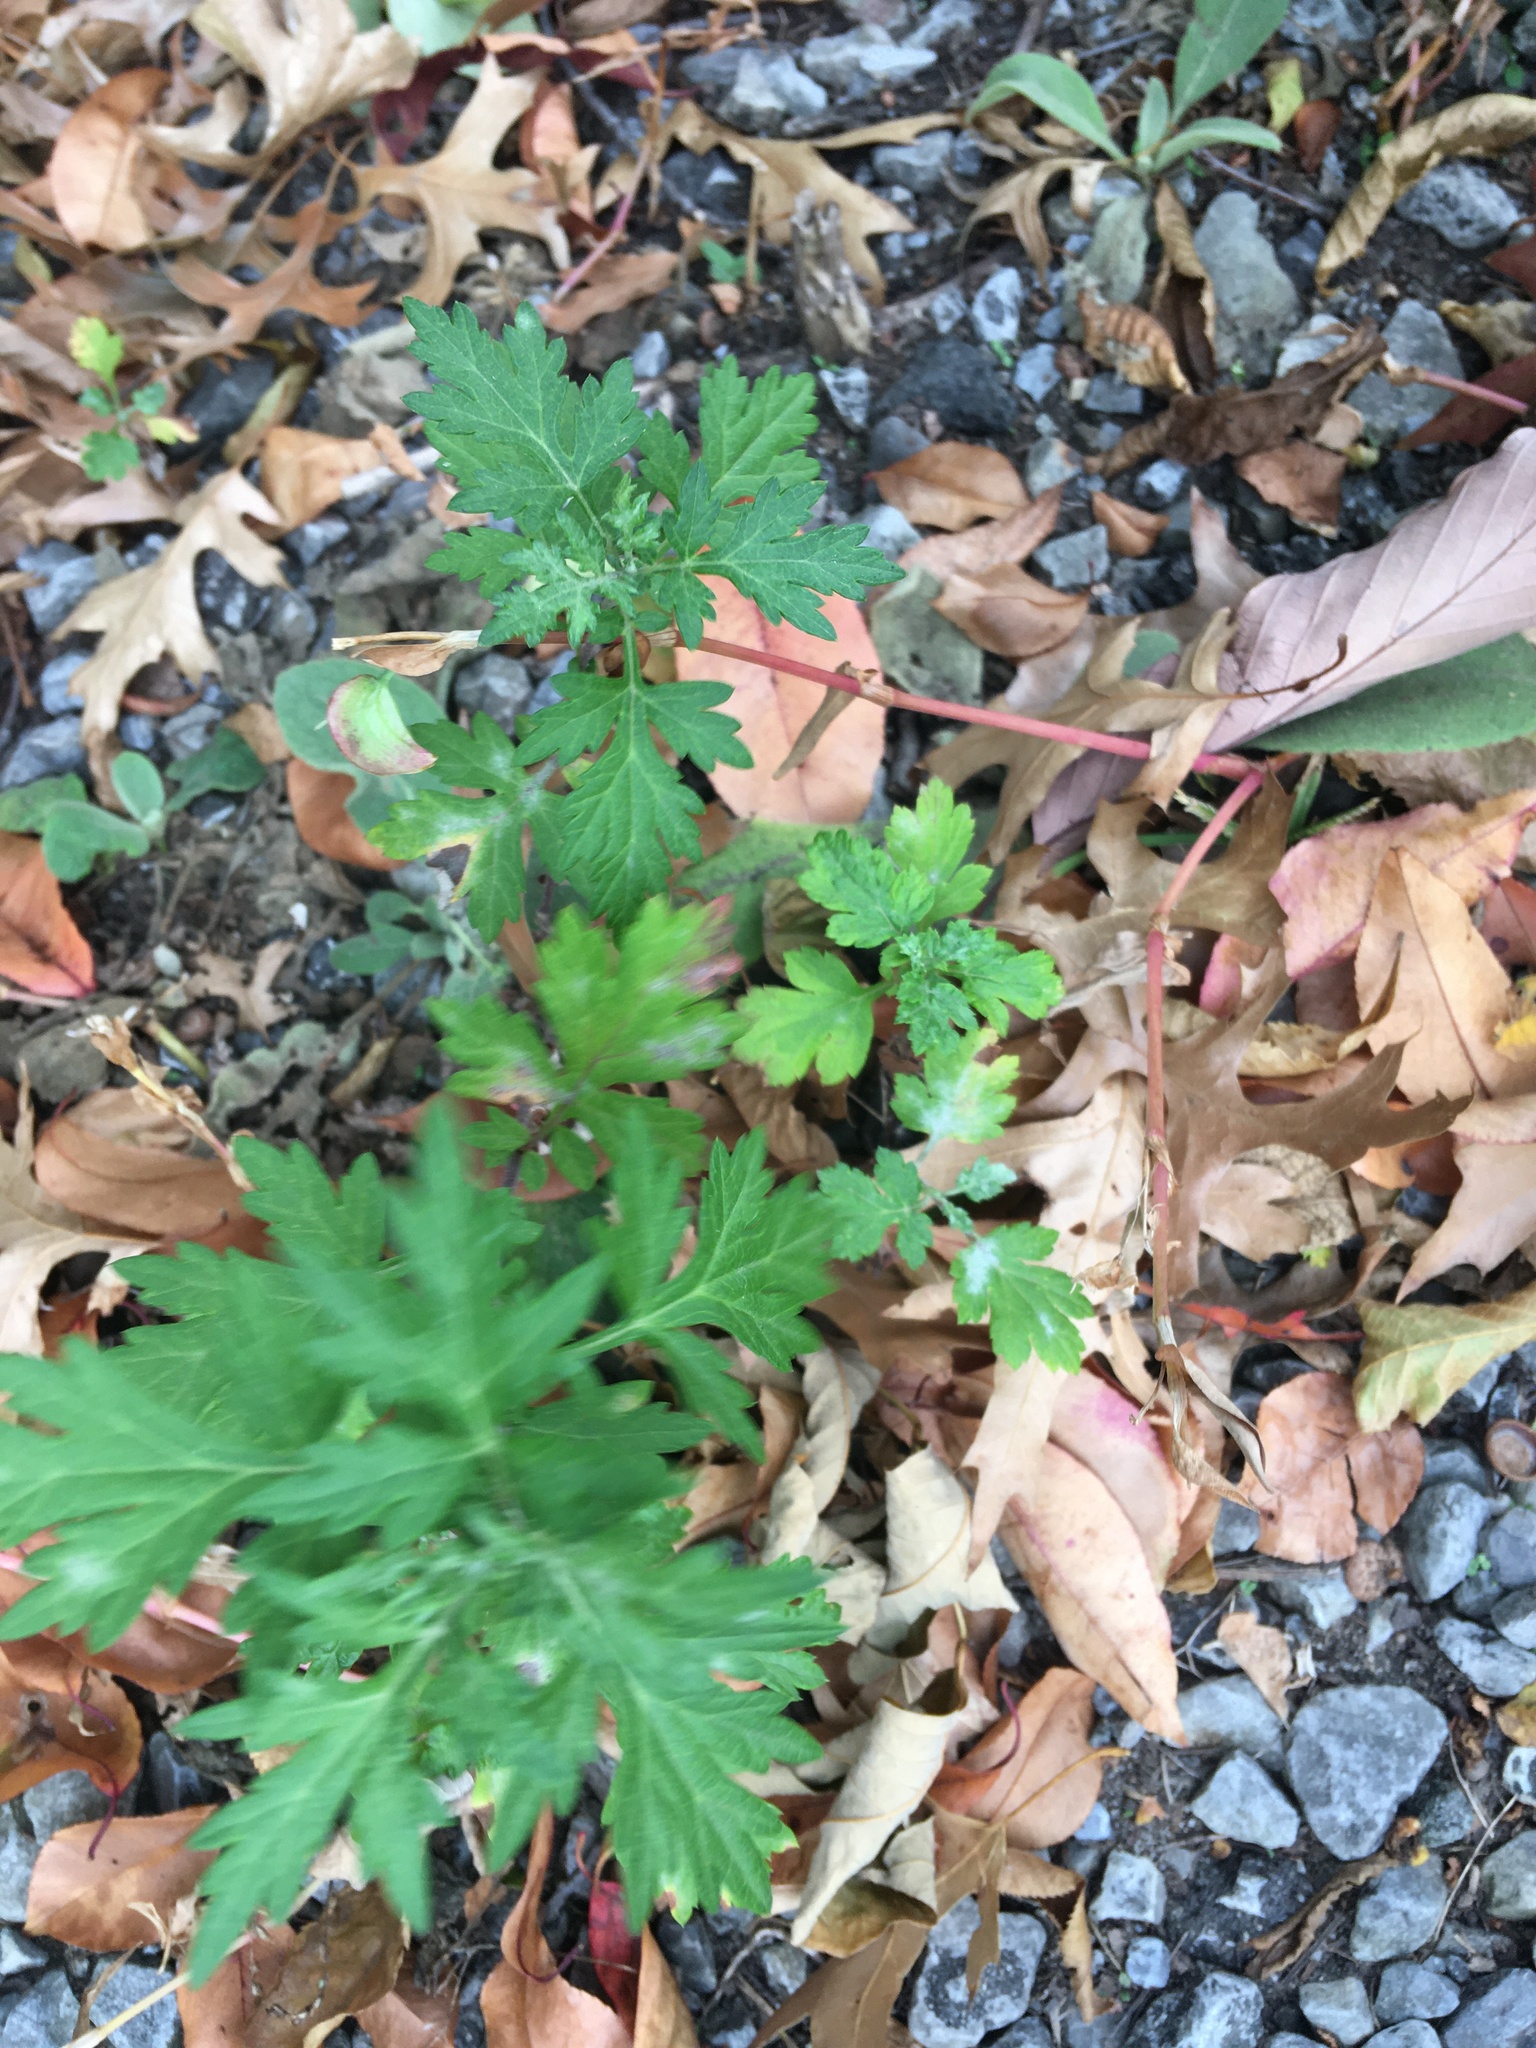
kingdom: Plantae
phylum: Tracheophyta
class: Magnoliopsida
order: Asterales
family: Asteraceae
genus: Artemisia
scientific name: Artemisia vulgaris
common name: Mugwort
